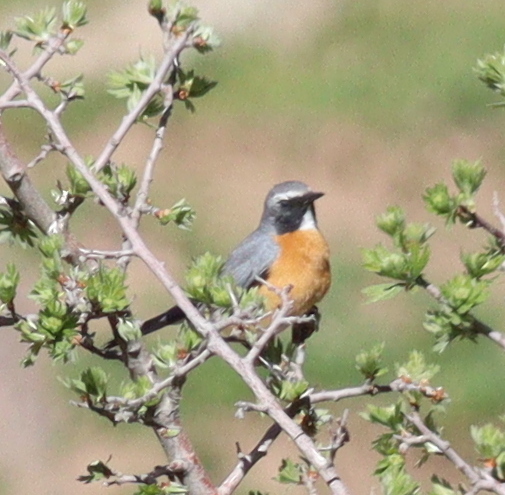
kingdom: Animalia
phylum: Chordata
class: Aves
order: Passeriformes
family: Muscicapidae
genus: Irania
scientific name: Irania gutturalis
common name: White-throated robin
